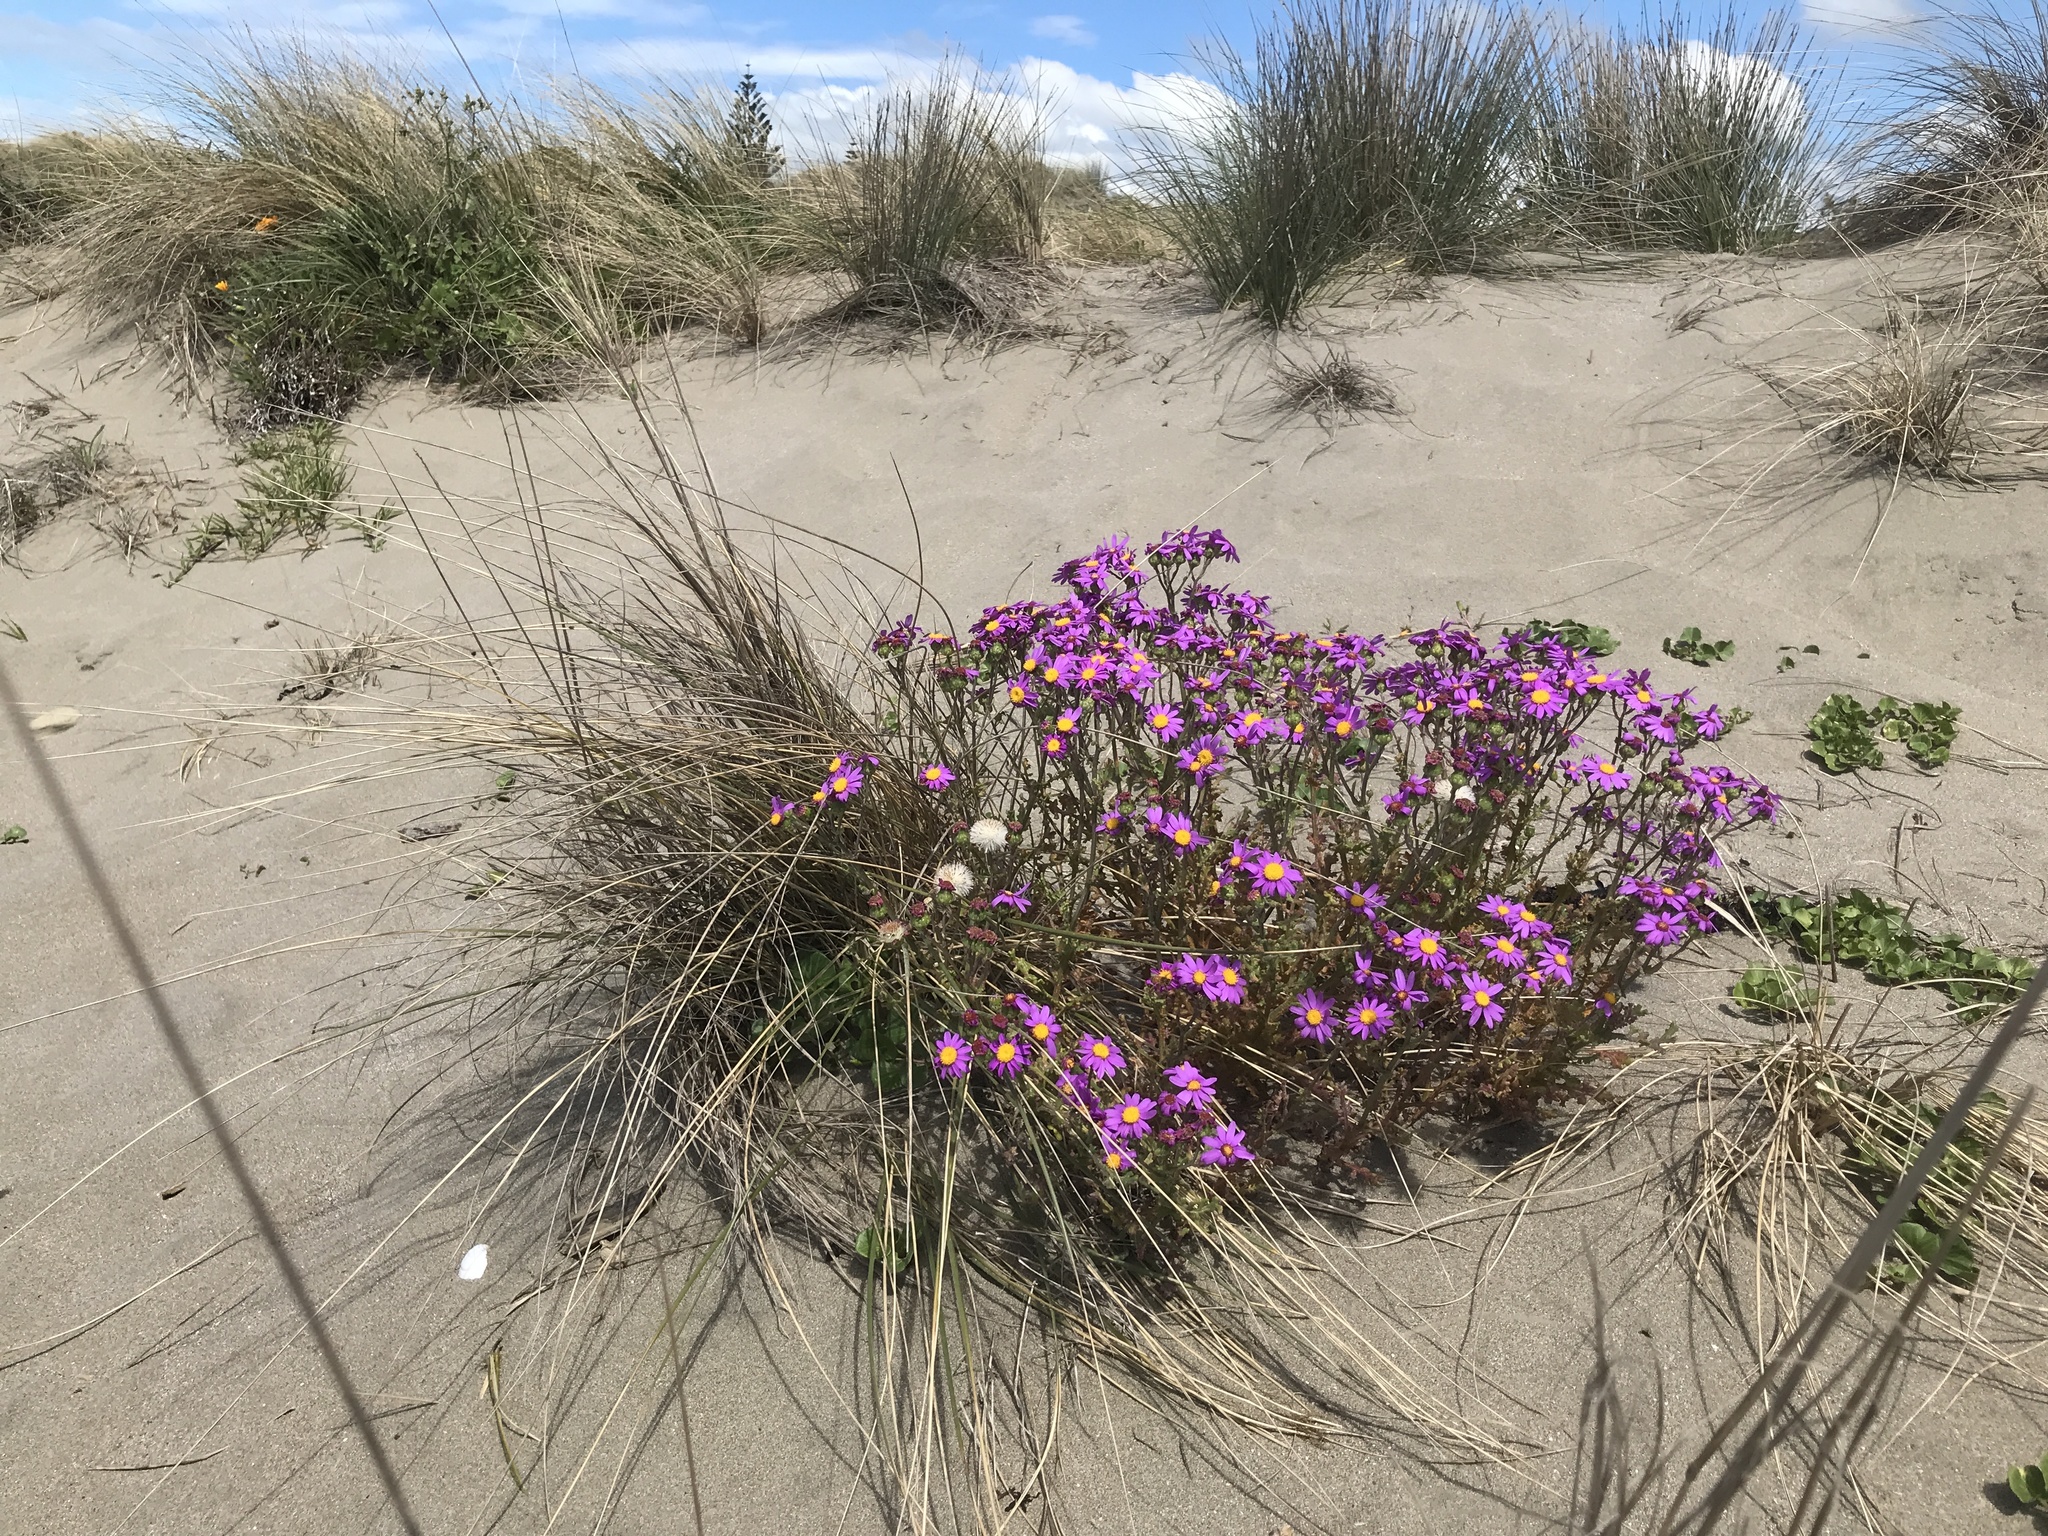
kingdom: Plantae
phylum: Tracheophyta
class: Magnoliopsida
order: Asterales
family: Asteraceae
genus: Senecio
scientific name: Senecio elegans
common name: Purple groundsel
